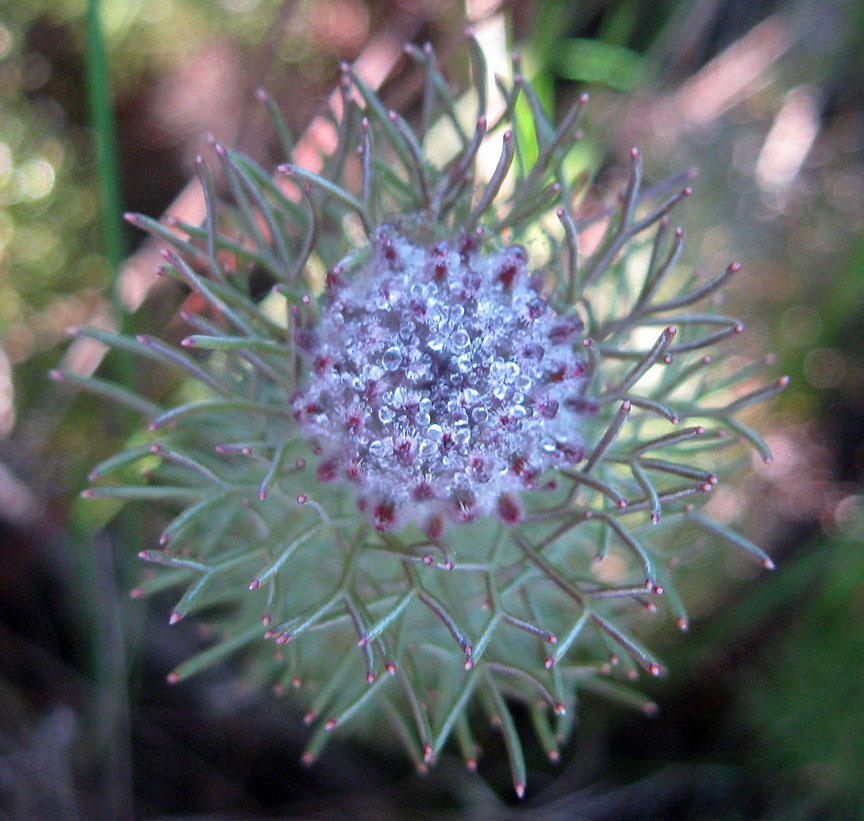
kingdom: Plantae
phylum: Tracheophyta
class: Magnoliopsida
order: Proteales
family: Proteaceae
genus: Serruria
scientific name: Serruria cyanoides
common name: Wynberg spiderhead
